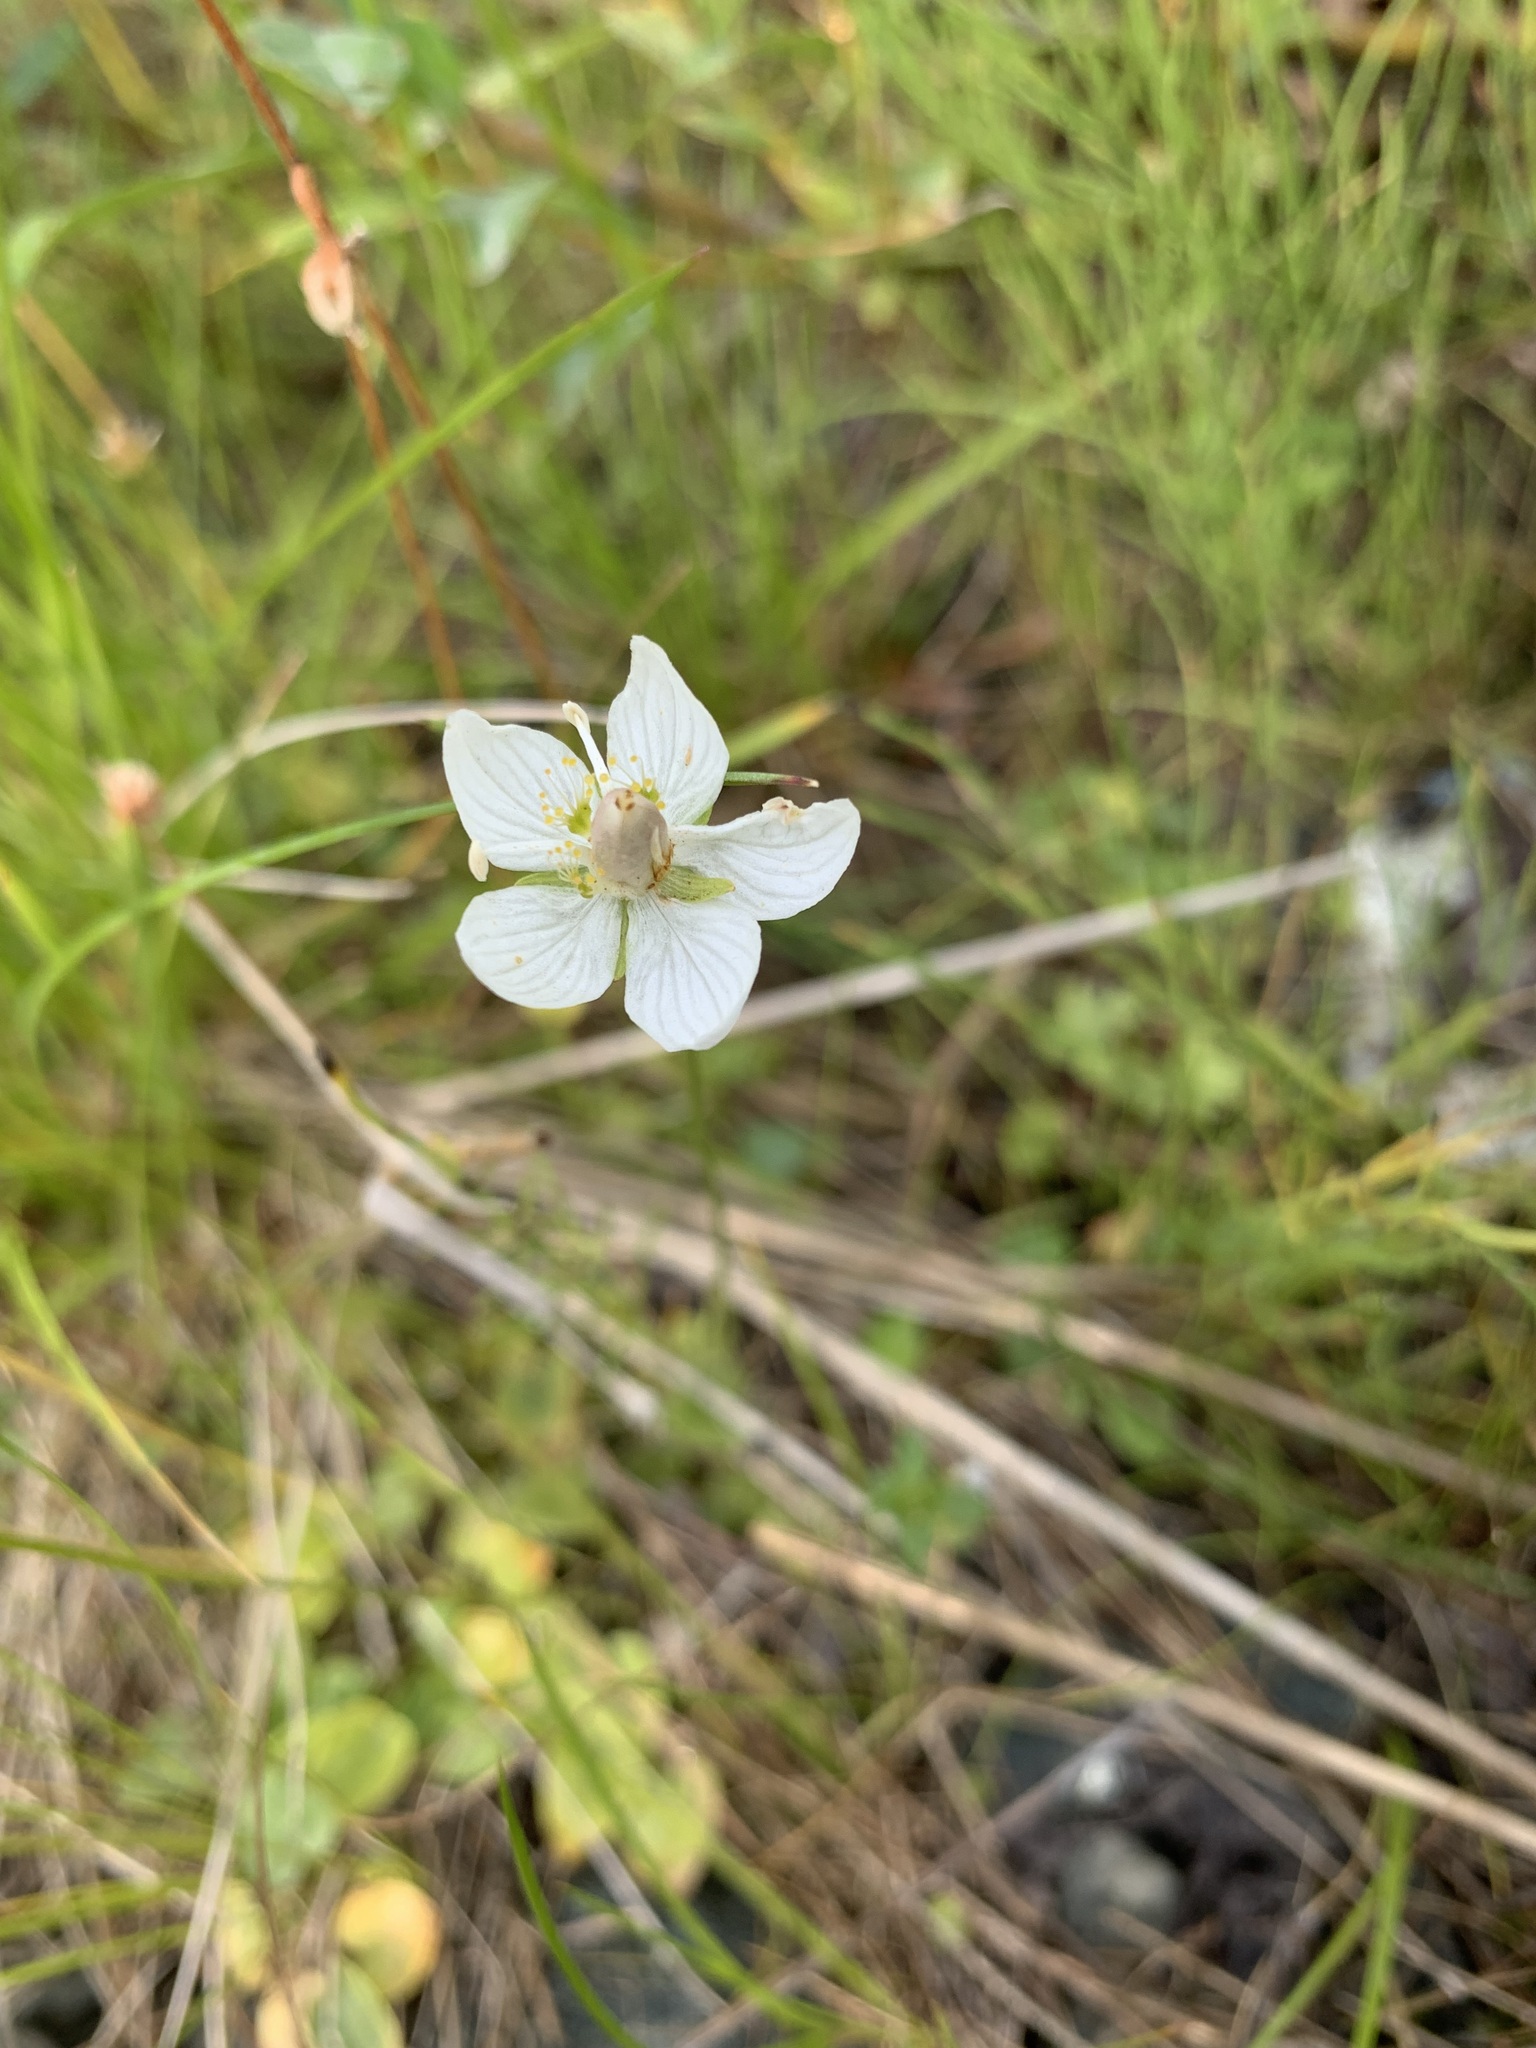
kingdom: Plantae
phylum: Tracheophyta
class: Magnoliopsida
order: Celastrales
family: Parnassiaceae
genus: Parnassia
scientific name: Parnassia palustris
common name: Grass-of-parnassus
